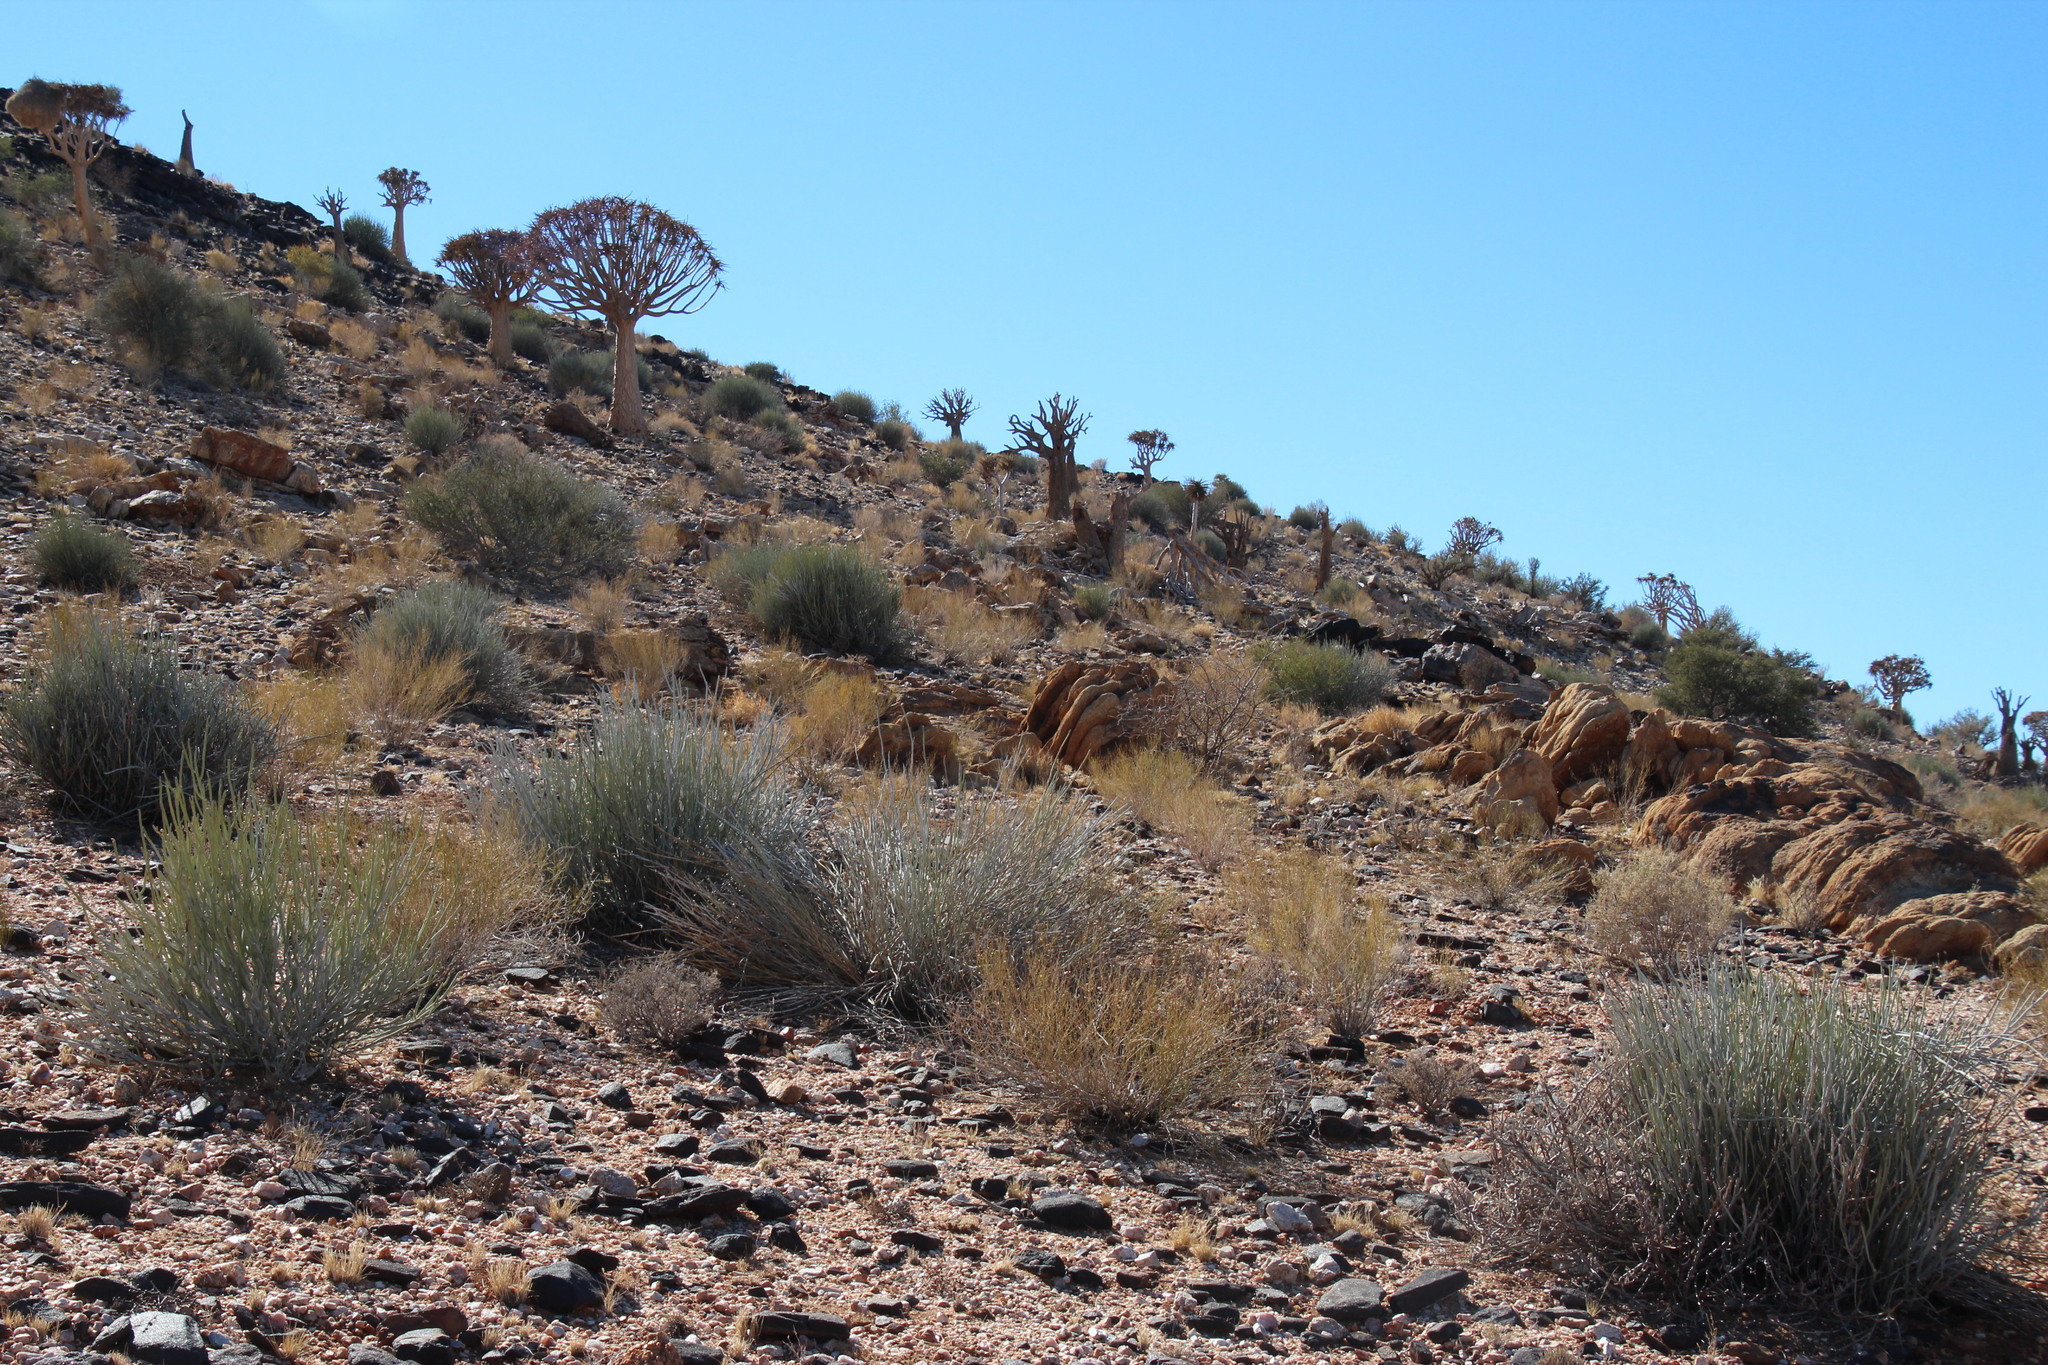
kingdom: Plantae
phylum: Tracheophyta
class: Liliopsida
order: Asparagales
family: Asphodelaceae
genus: Aloidendron
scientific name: Aloidendron dichotomum
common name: Quiver tree
